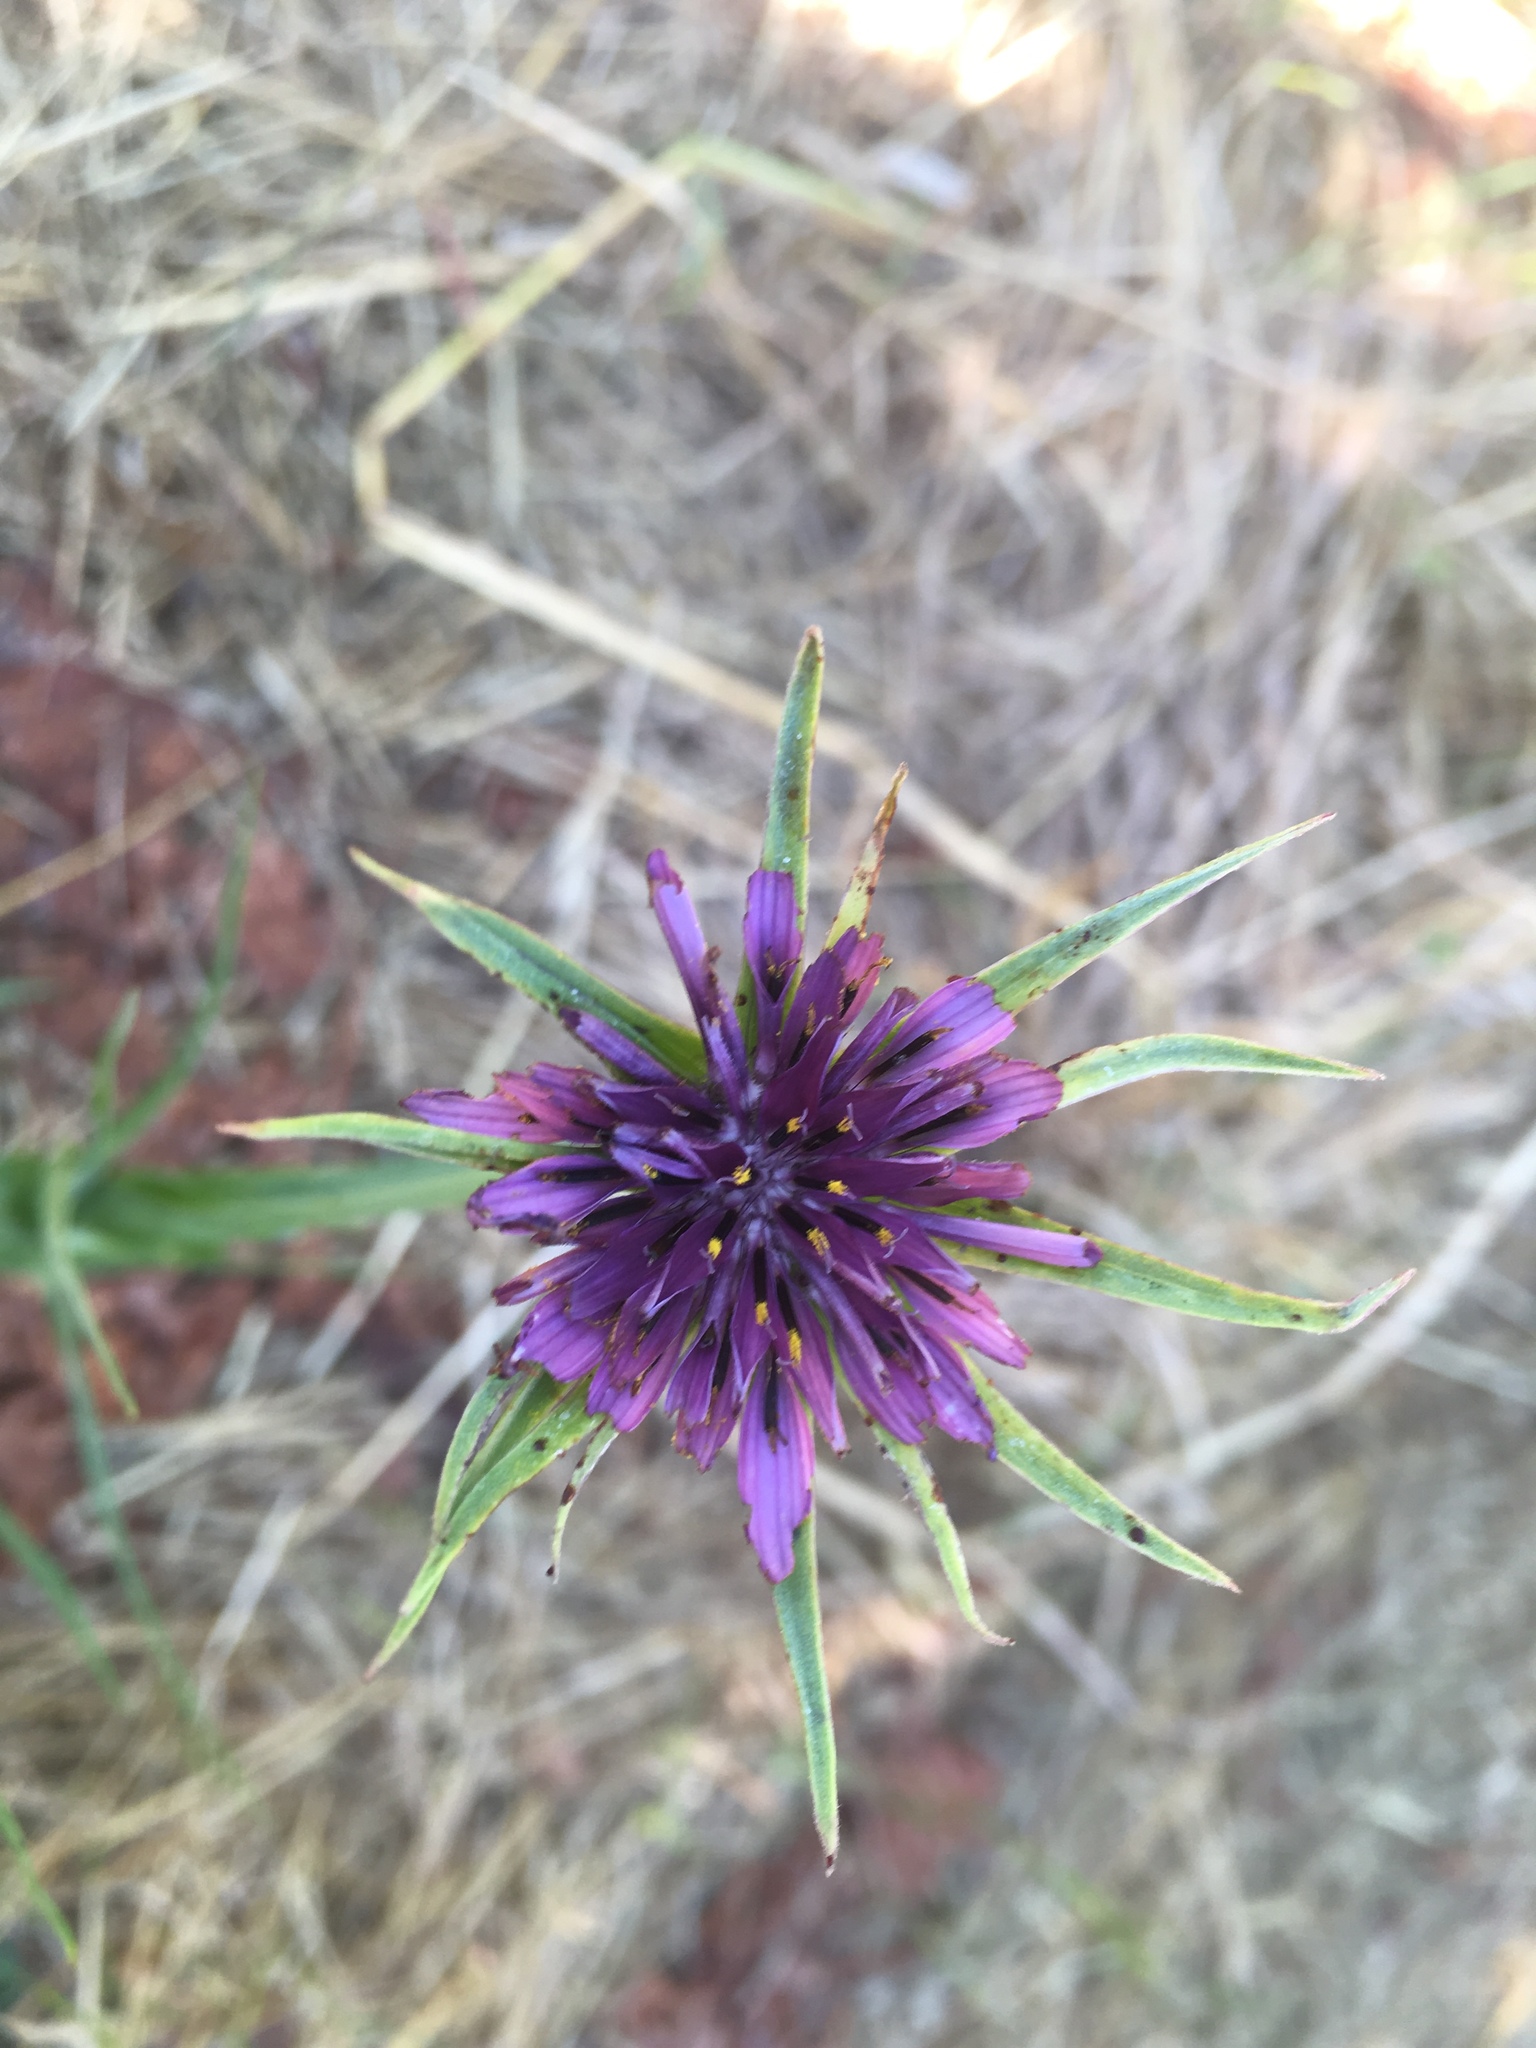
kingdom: Plantae
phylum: Tracheophyta
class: Magnoliopsida
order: Asterales
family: Asteraceae
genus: Tragopogon
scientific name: Tragopogon porrifolius
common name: Salsify
